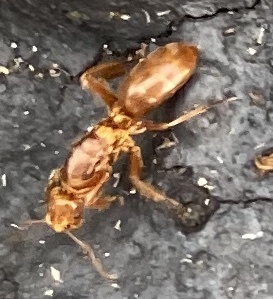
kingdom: Animalia
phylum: Arthropoda
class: Insecta
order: Hymenoptera
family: Formicidae
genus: Acanthomyops
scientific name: Acanthomyops murphyi
